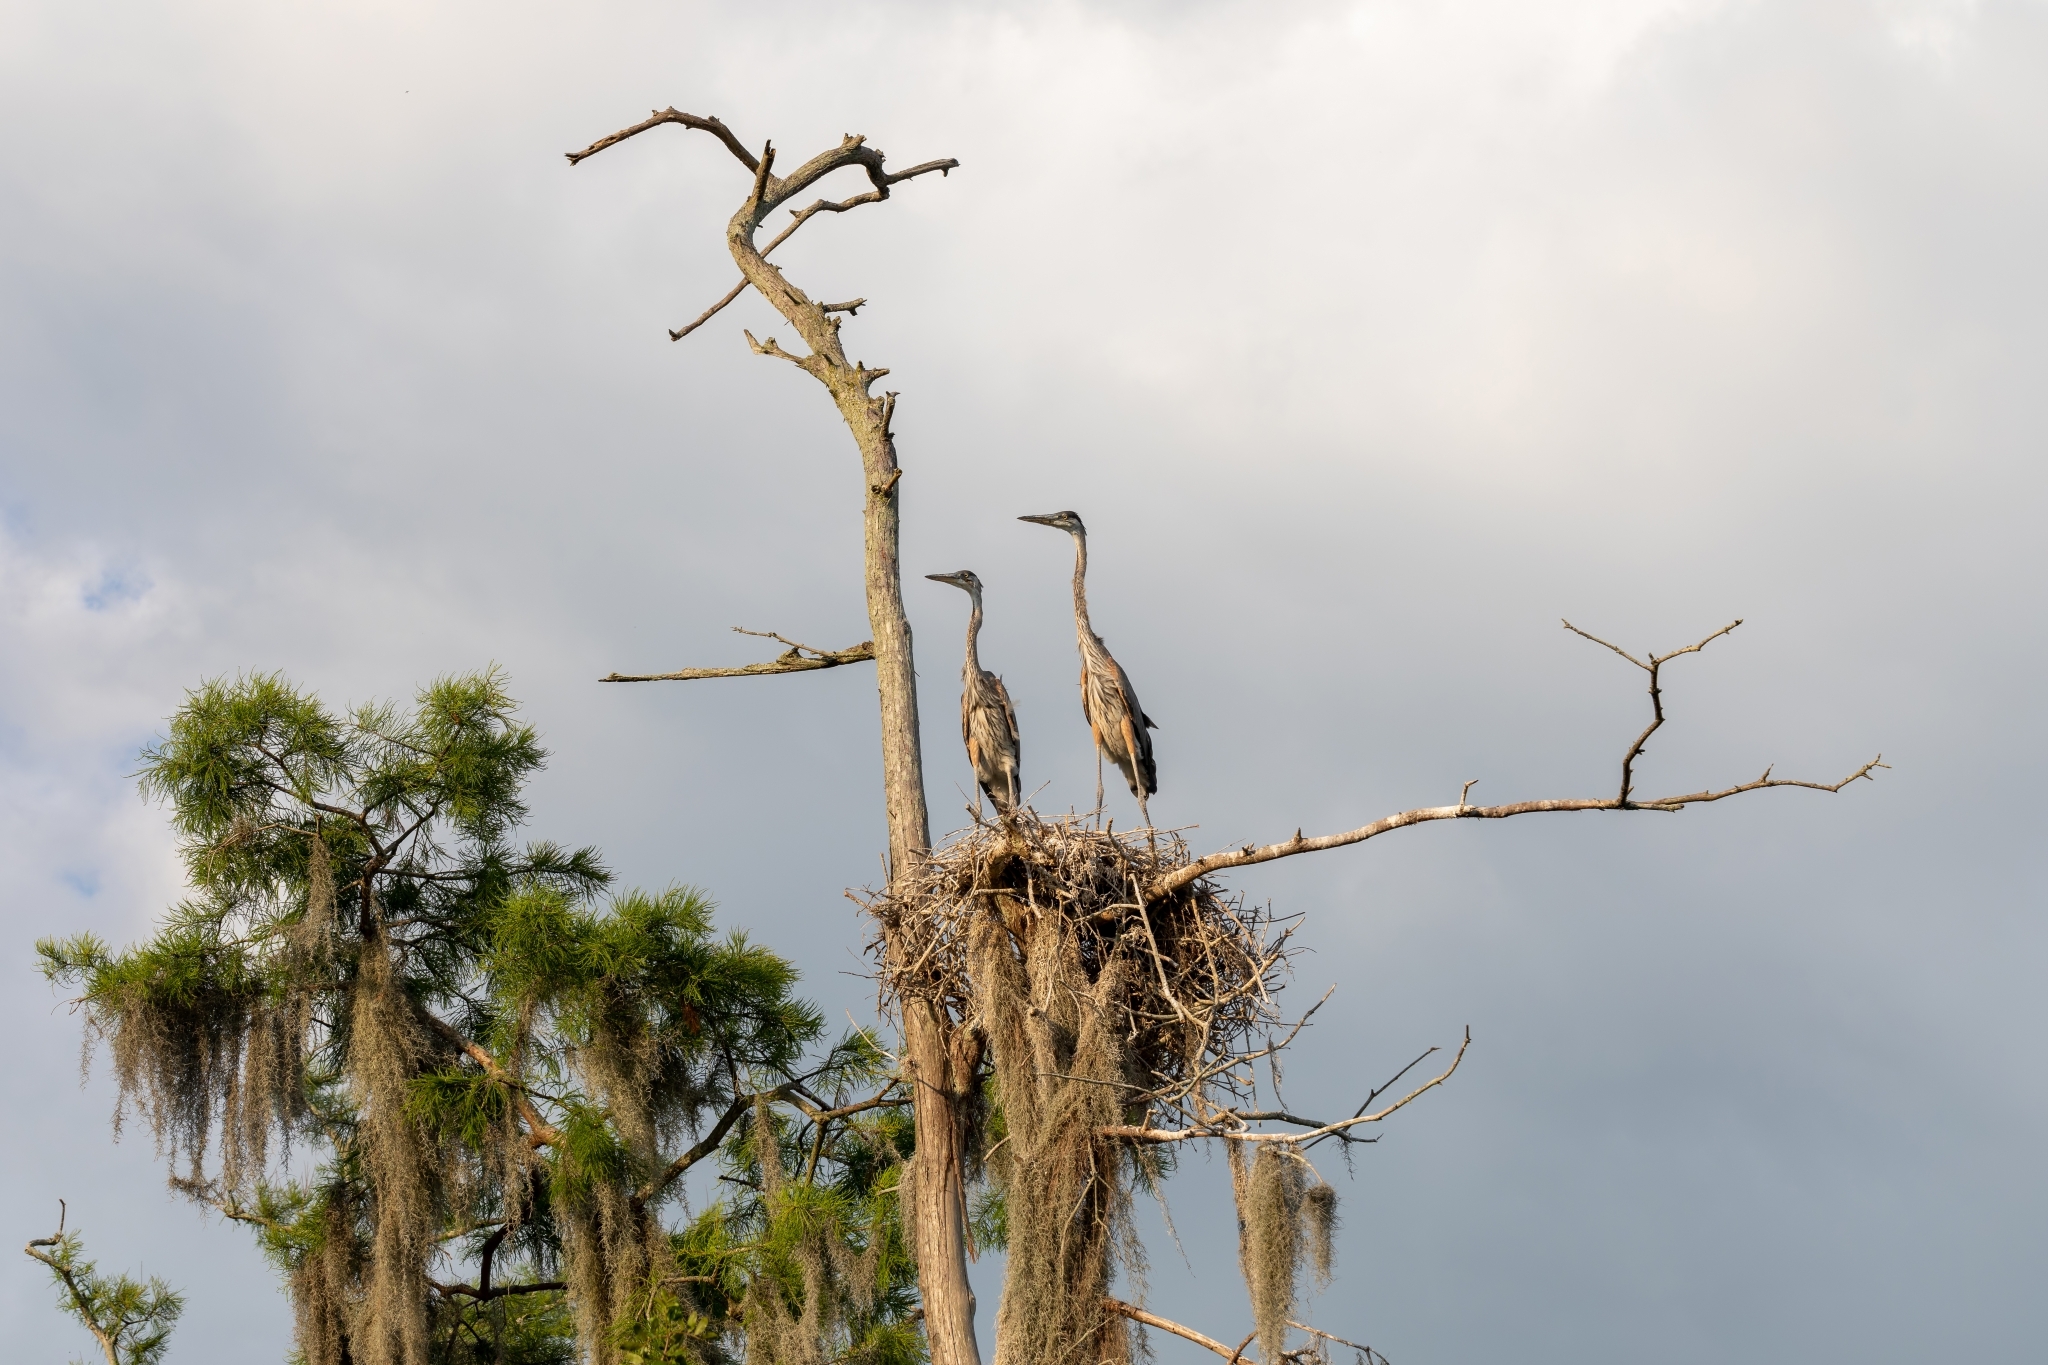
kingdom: Animalia
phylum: Chordata
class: Aves
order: Pelecaniformes
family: Ardeidae
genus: Ardea
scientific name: Ardea herodias
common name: Great blue heron
